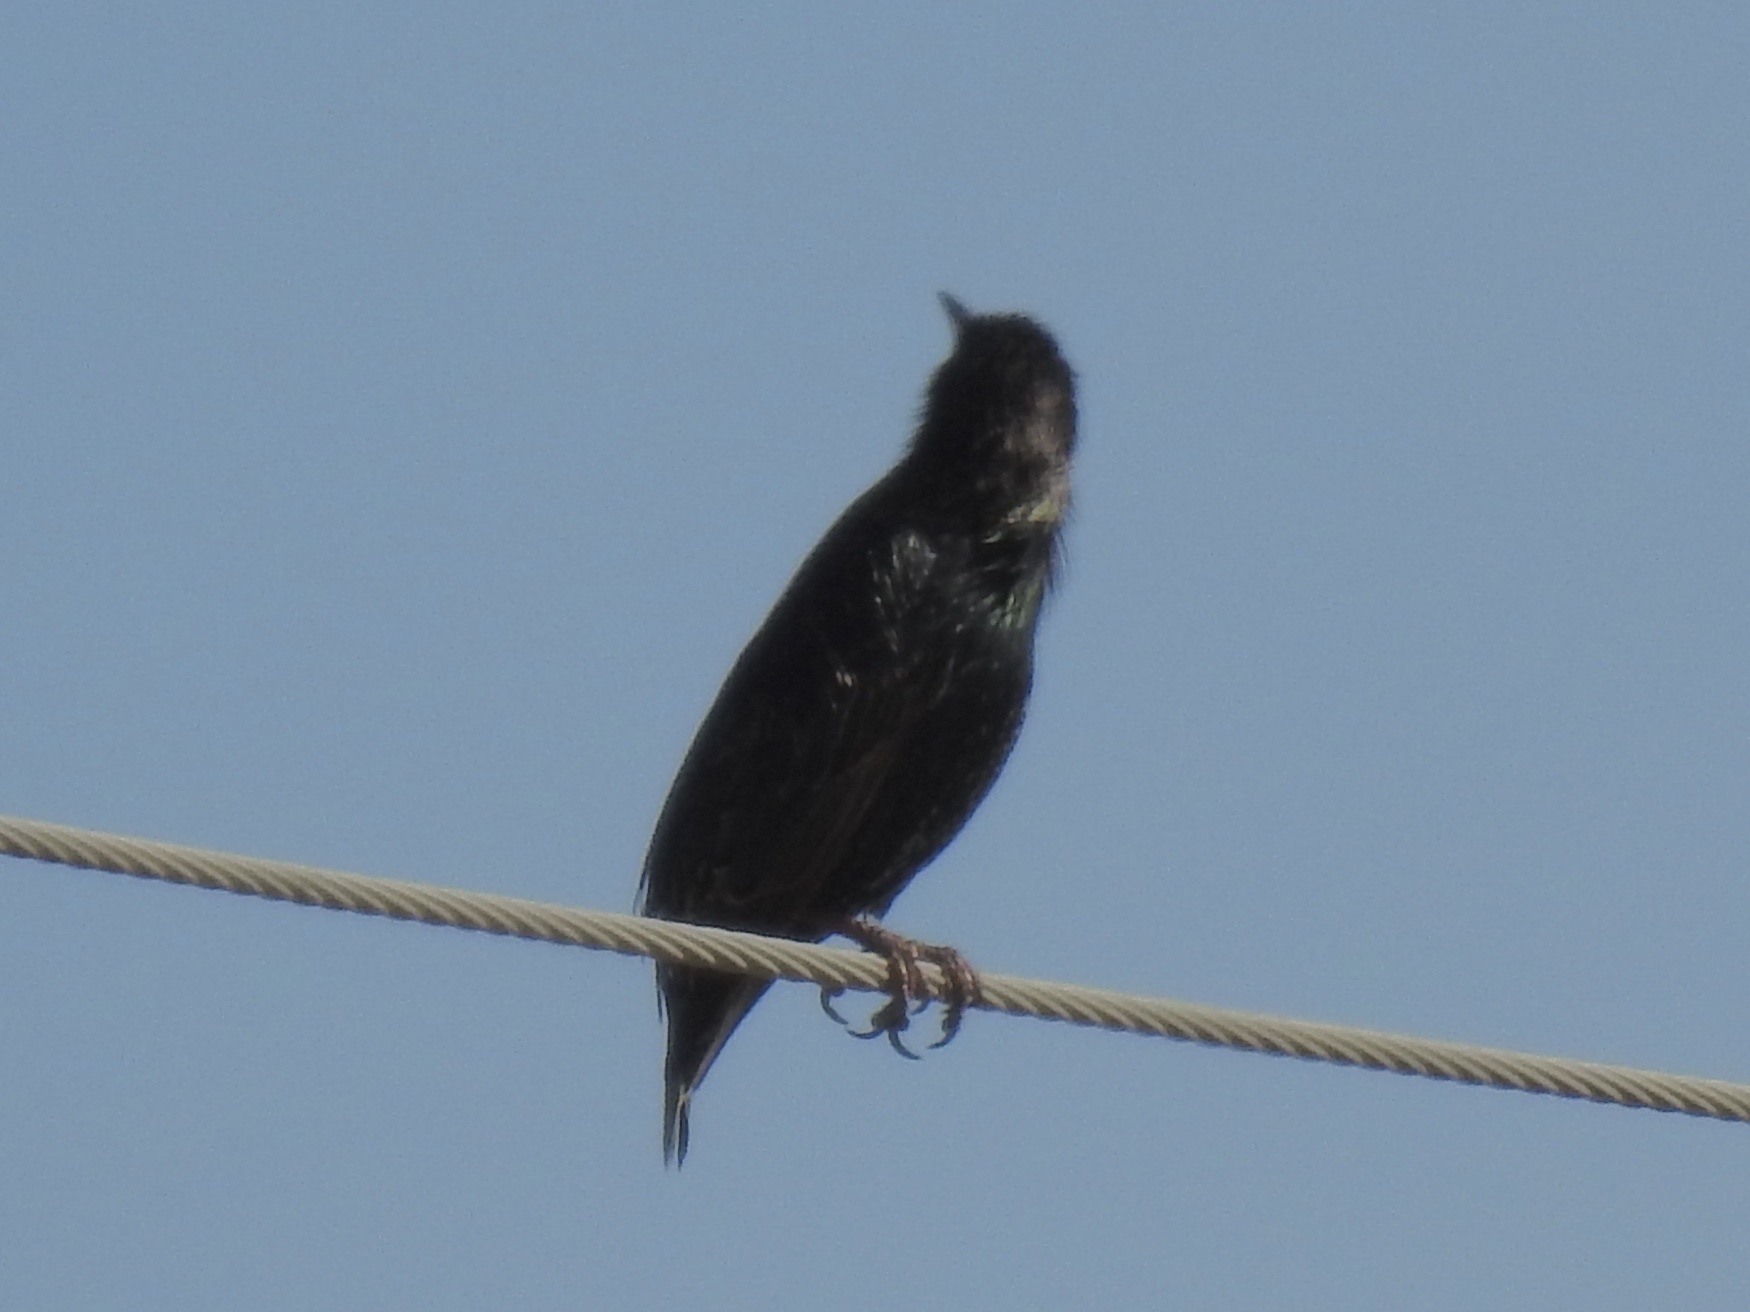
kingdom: Animalia
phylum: Chordata
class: Aves
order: Passeriformes
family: Sturnidae
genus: Sturnus
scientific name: Sturnus vulgaris
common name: Common starling
